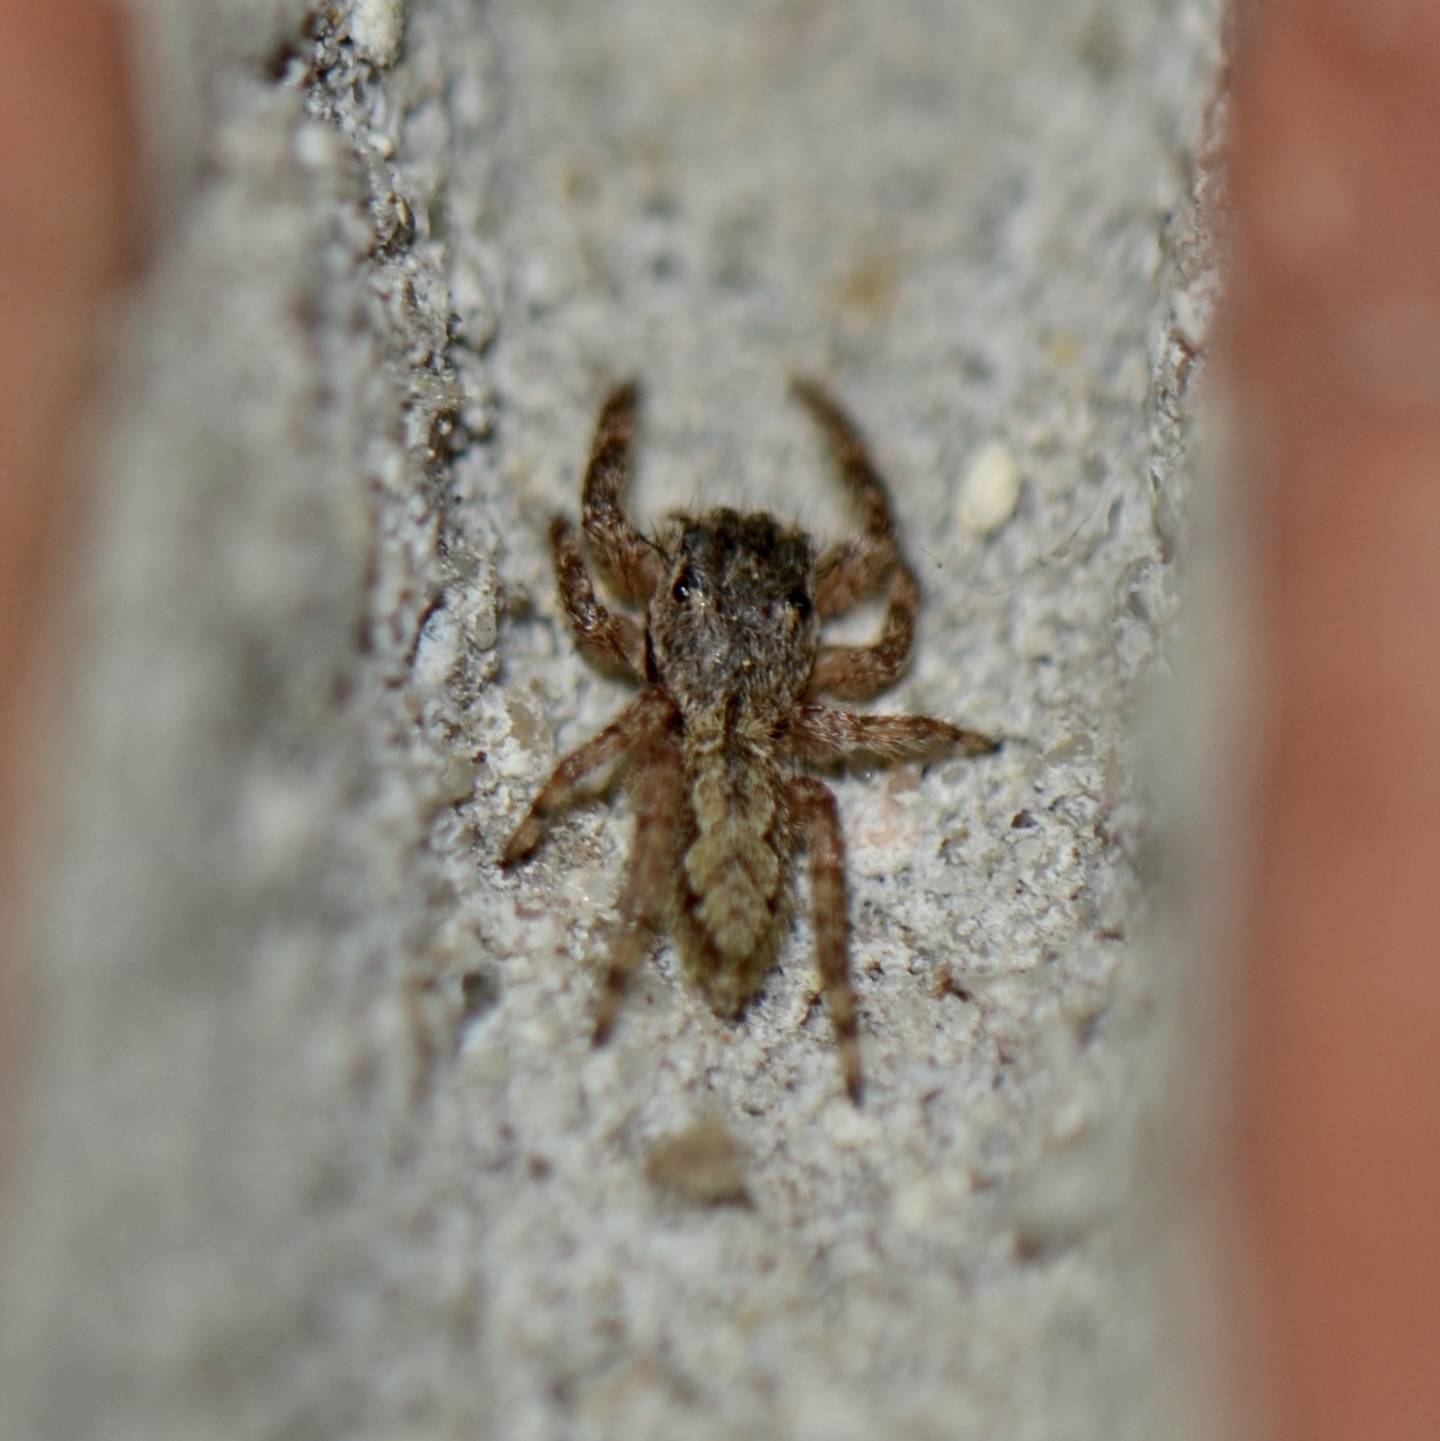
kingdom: Animalia
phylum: Arthropoda
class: Arachnida
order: Araneae
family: Salticidae
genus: Platycryptus
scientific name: Platycryptus undatus
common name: Tan jumping spider
